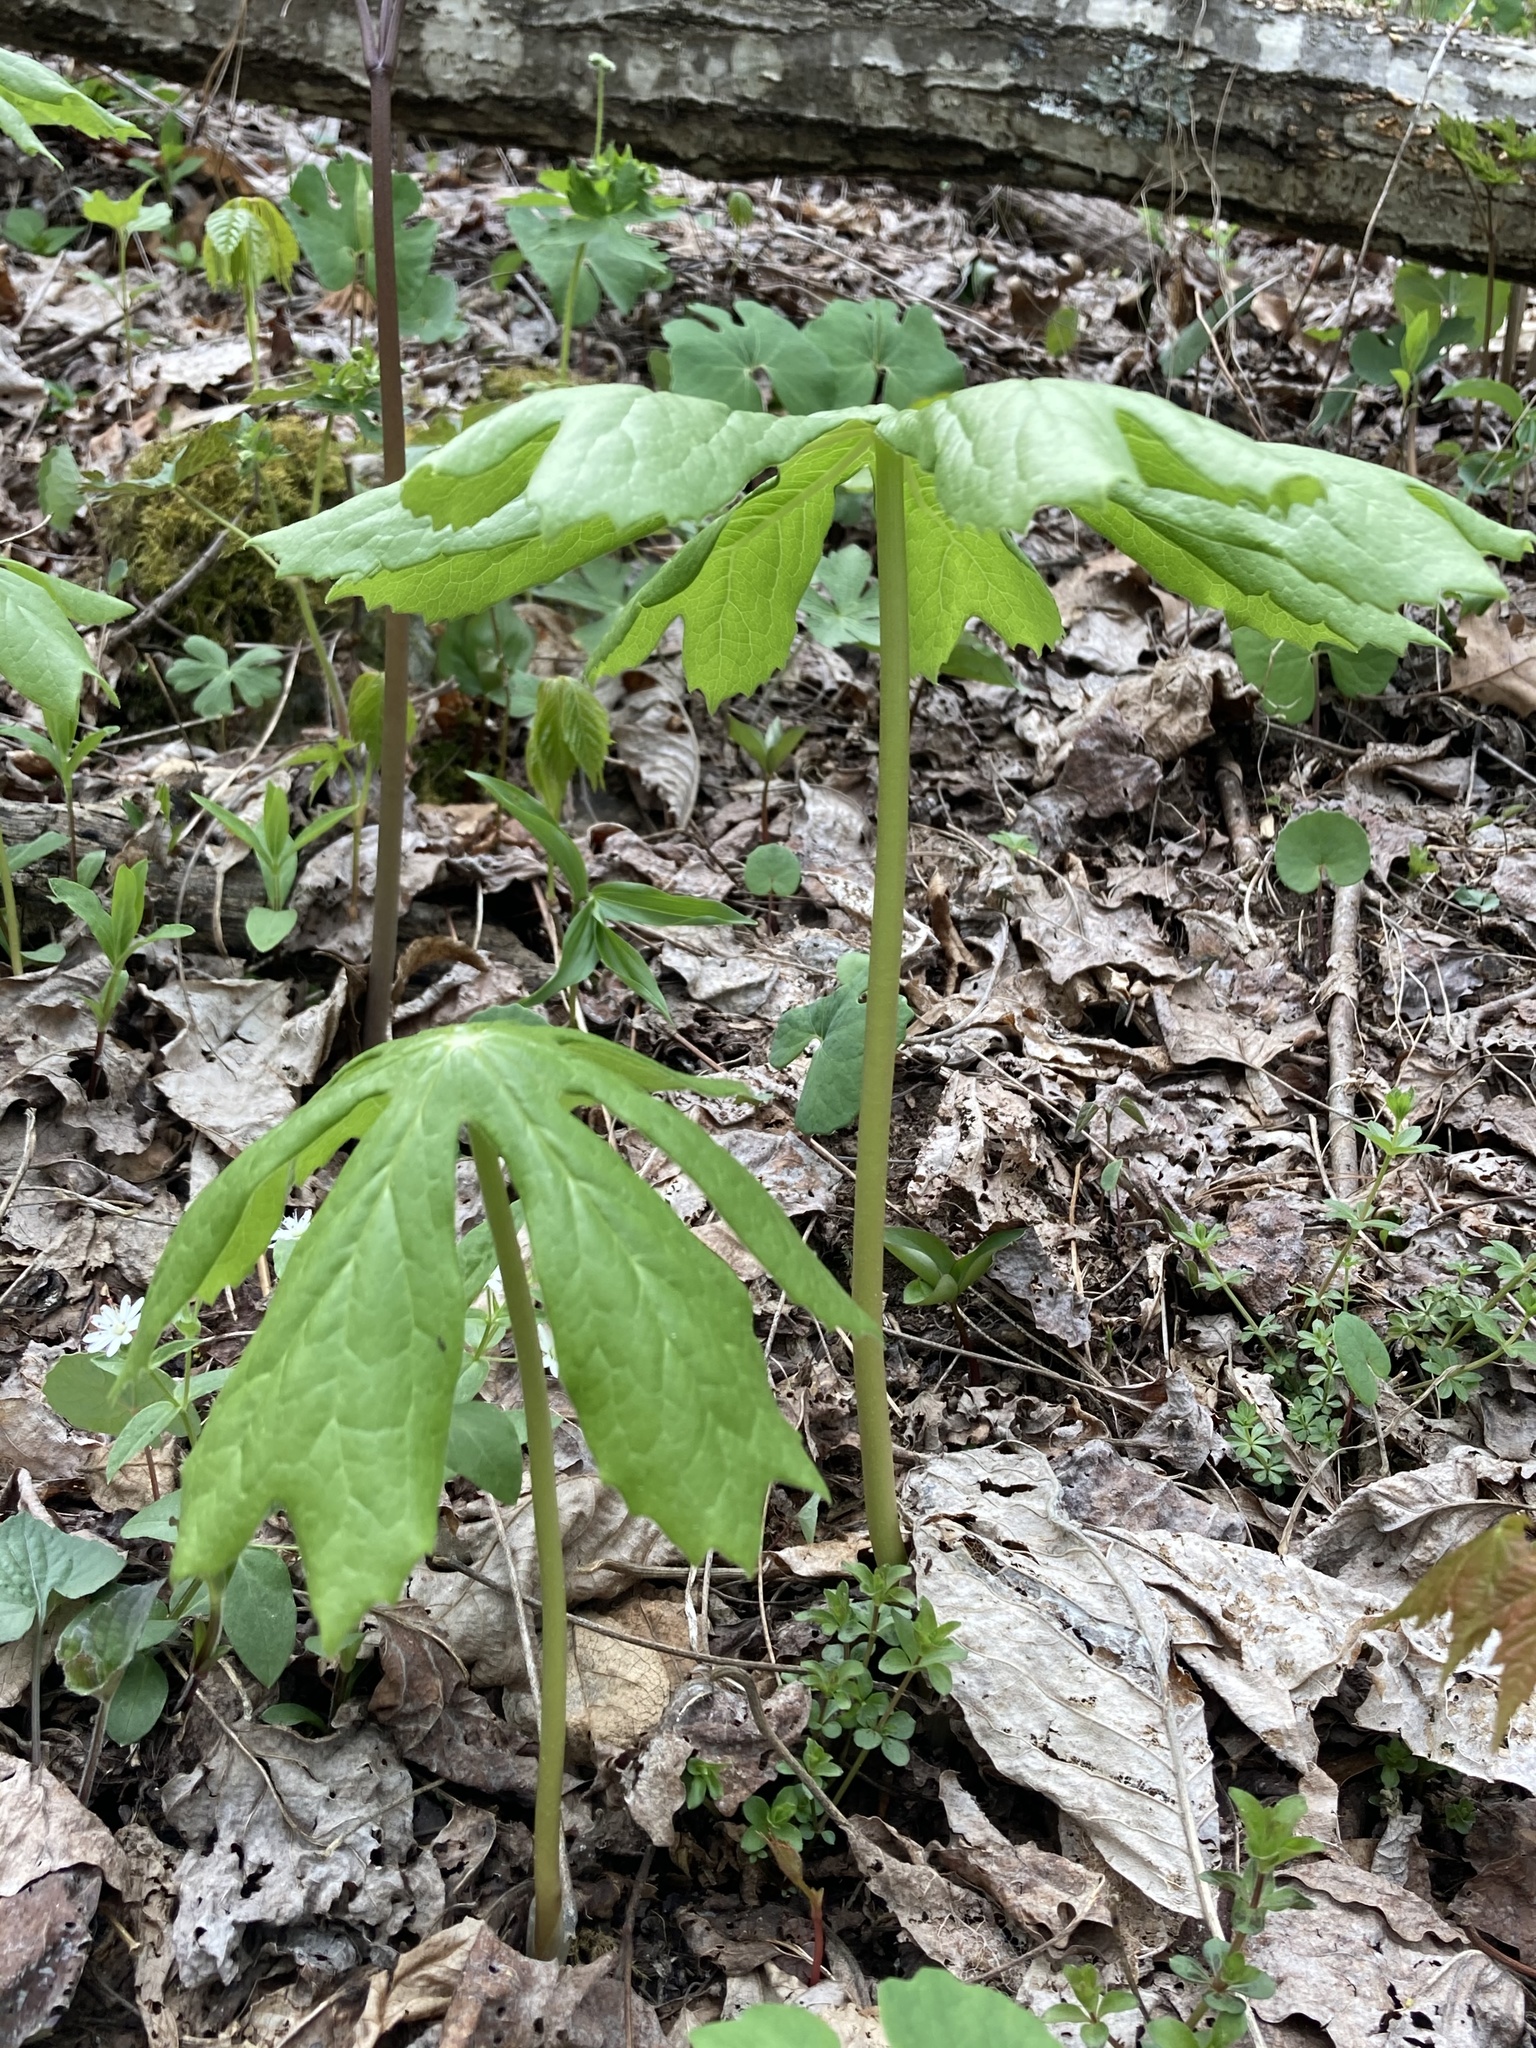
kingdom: Plantae
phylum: Tracheophyta
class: Magnoliopsida
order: Ranunculales
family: Berberidaceae
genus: Podophyllum
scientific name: Podophyllum peltatum
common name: Wild mandrake
